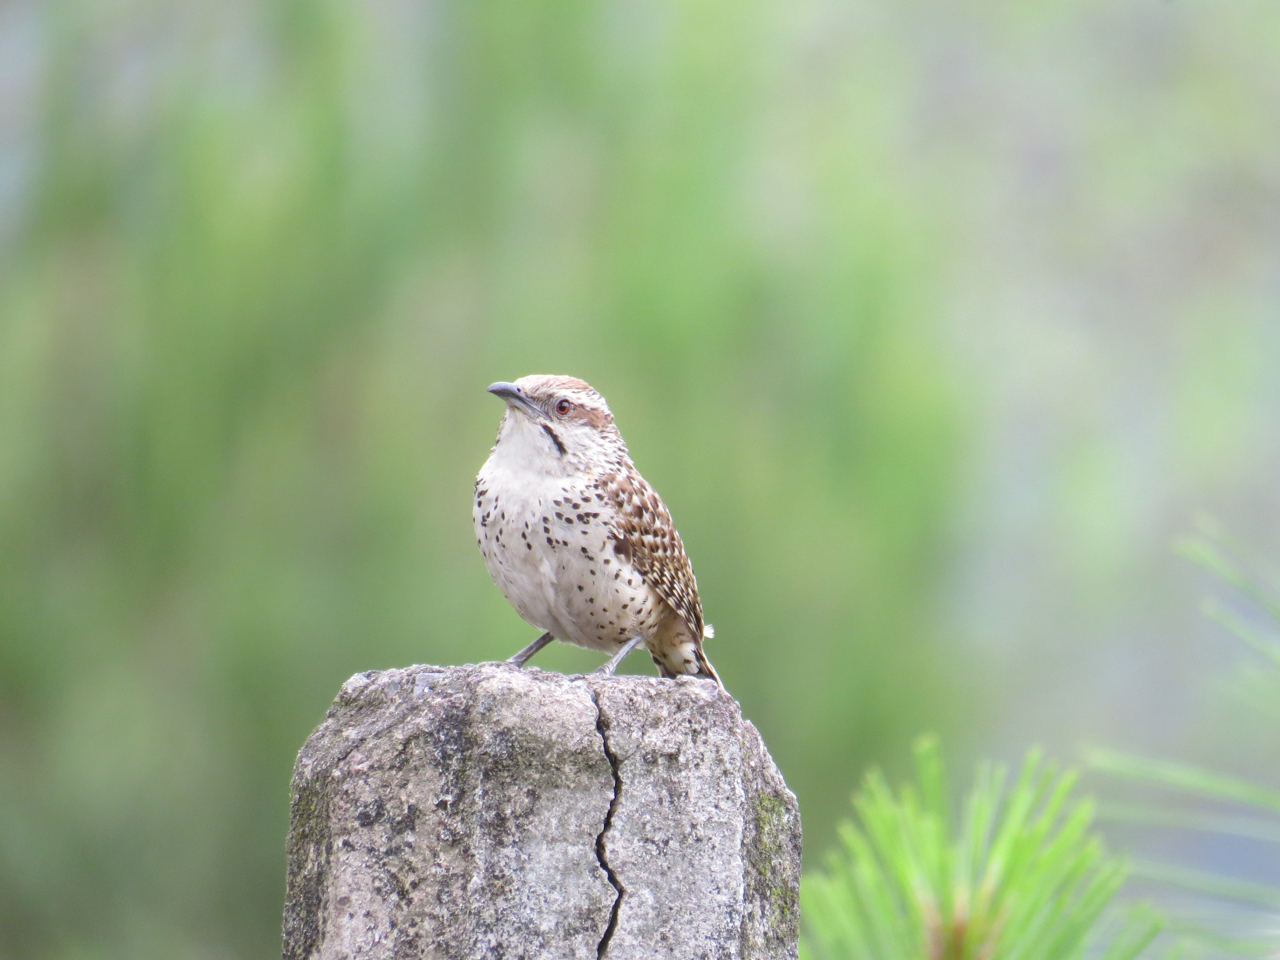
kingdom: Animalia
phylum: Chordata
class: Aves
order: Passeriformes
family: Troglodytidae
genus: Campylorhynchus
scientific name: Campylorhynchus gularis
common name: Spotted wren
